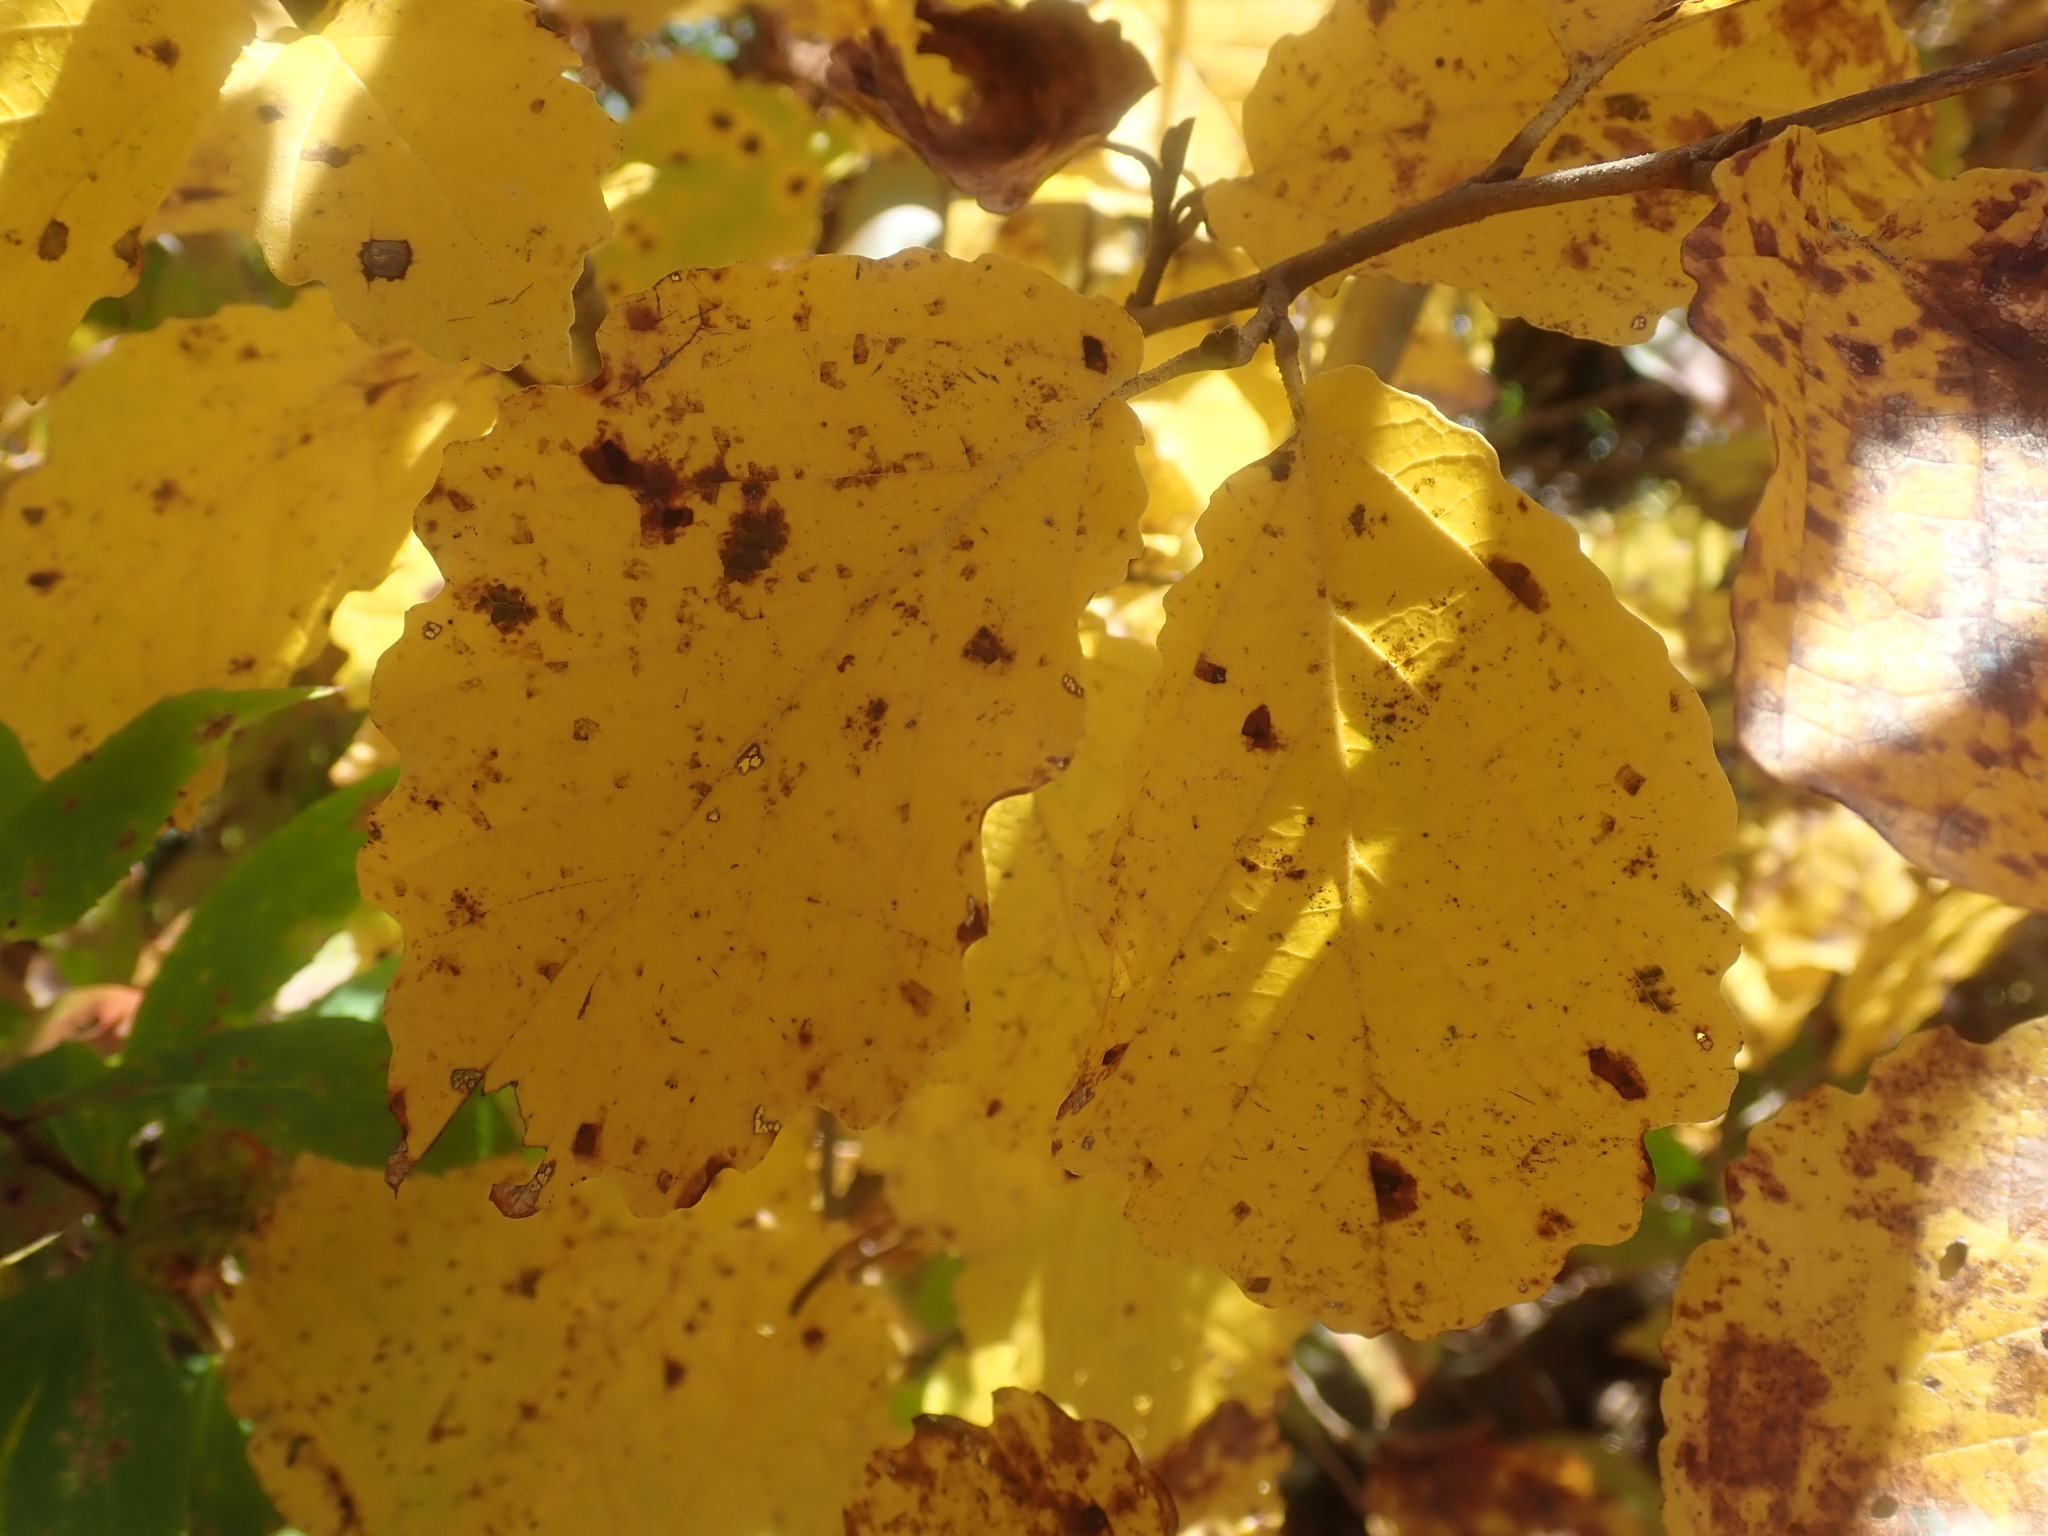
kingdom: Plantae
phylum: Tracheophyta
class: Magnoliopsida
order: Saxifragales
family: Hamamelidaceae
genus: Hamamelis
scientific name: Hamamelis virginiana
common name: Witch-hazel
